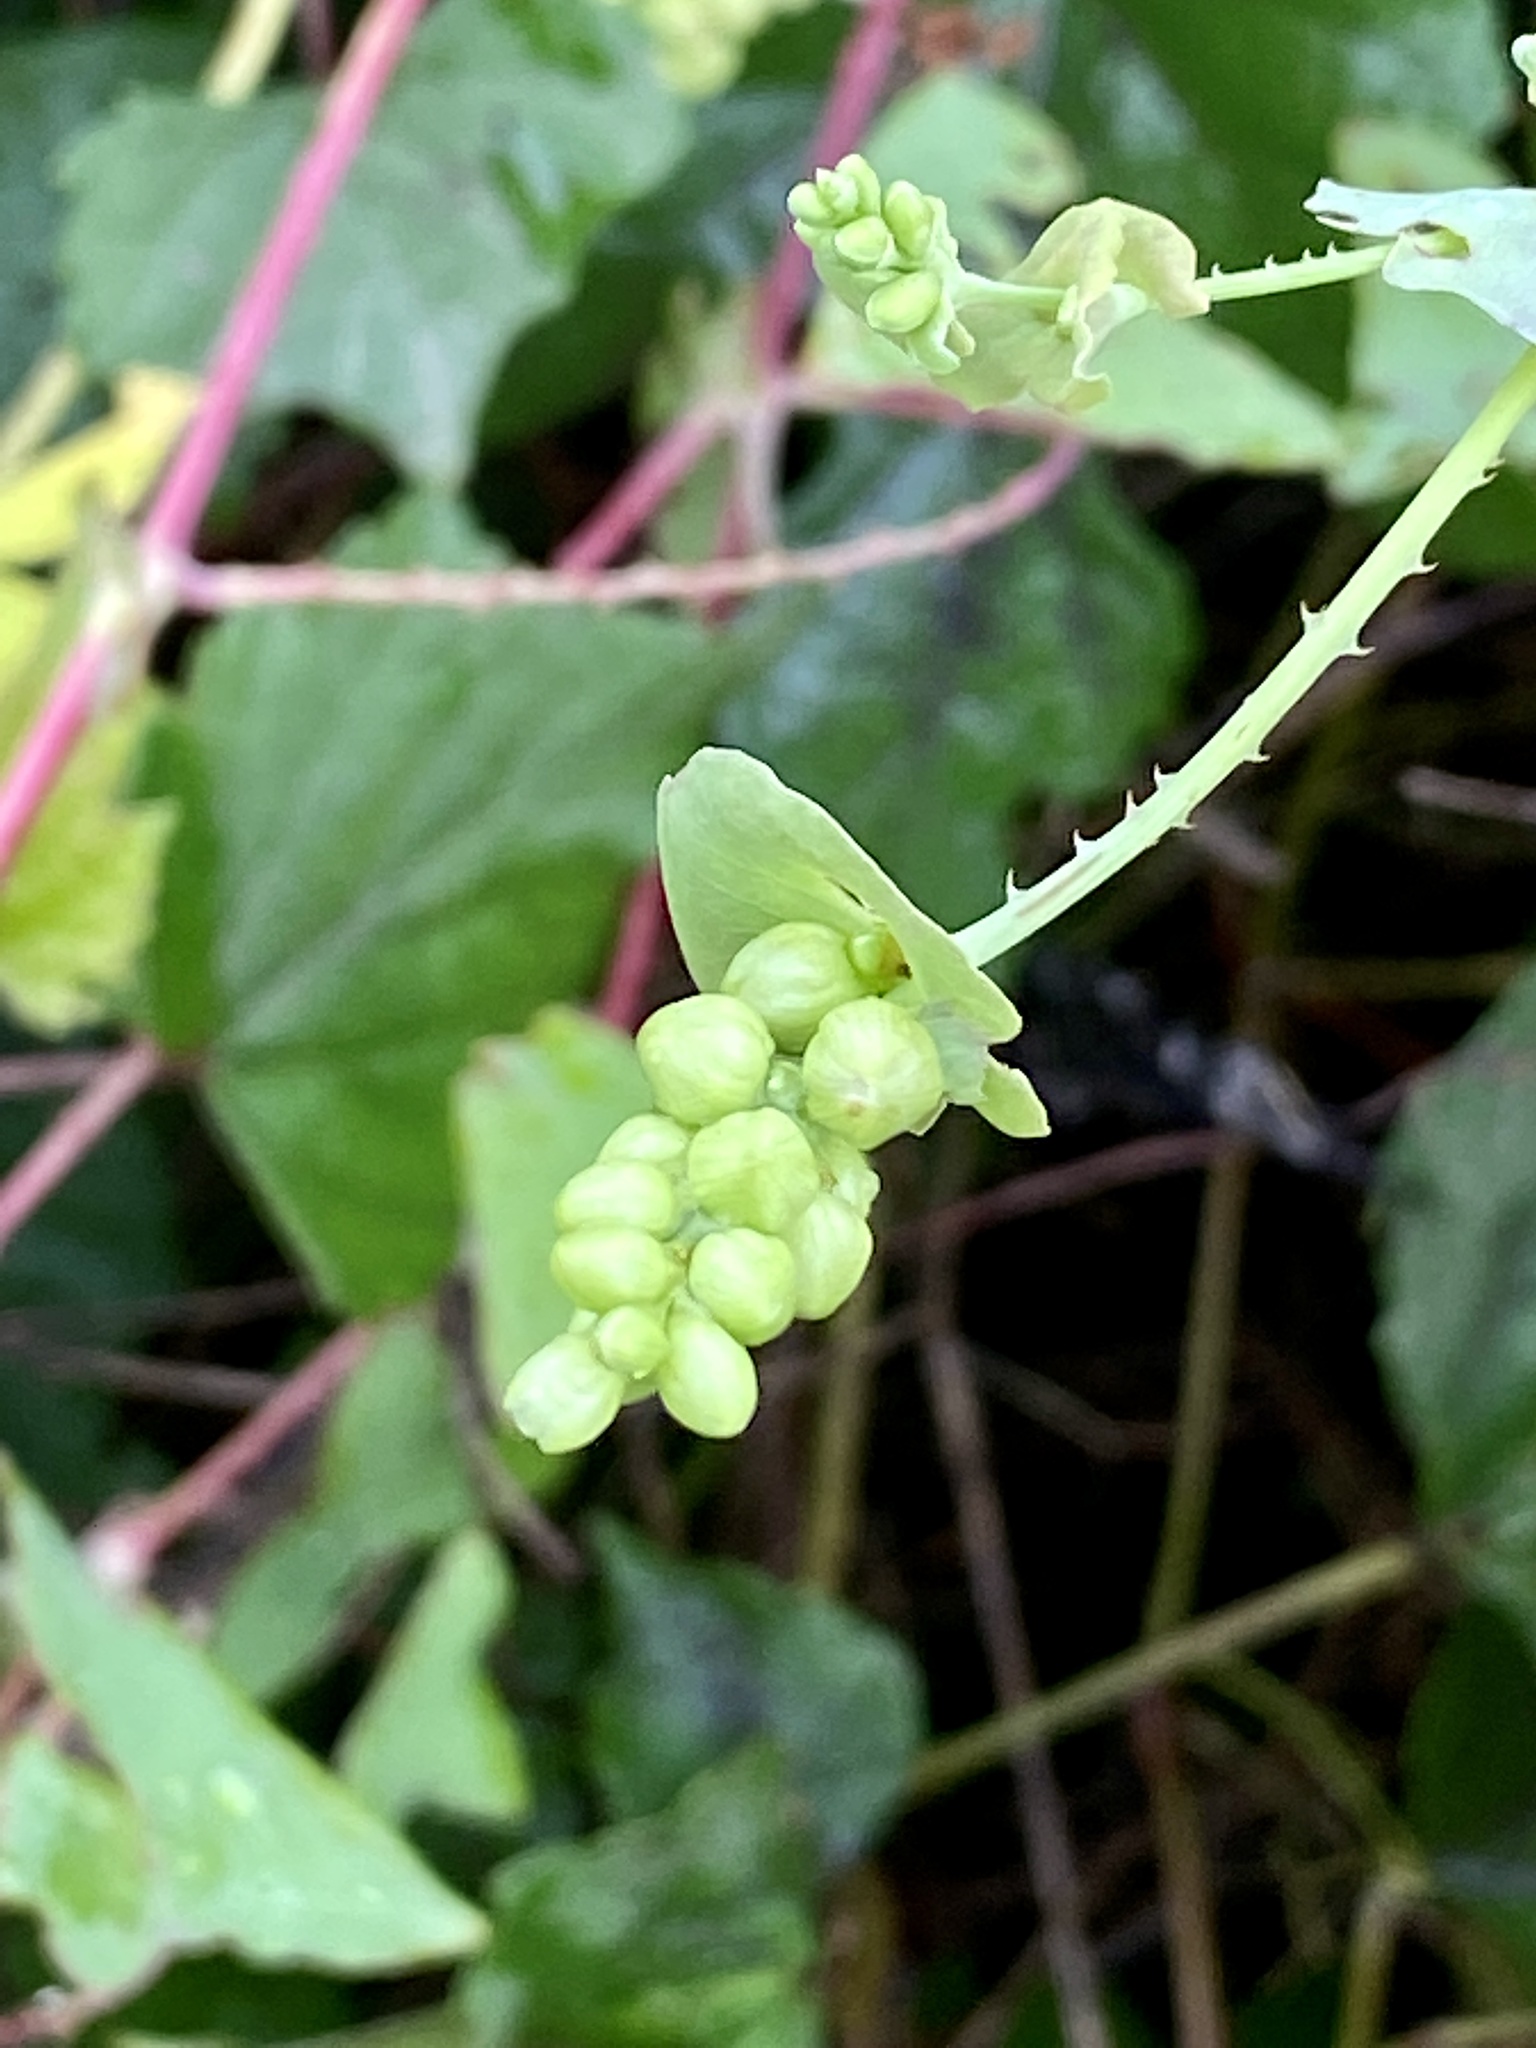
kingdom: Plantae
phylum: Tracheophyta
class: Magnoliopsida
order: Caryophyllales
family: Polygonaceae
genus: Persicaria
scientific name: Persicaria perfoliata
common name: Asiatic tearthumb
